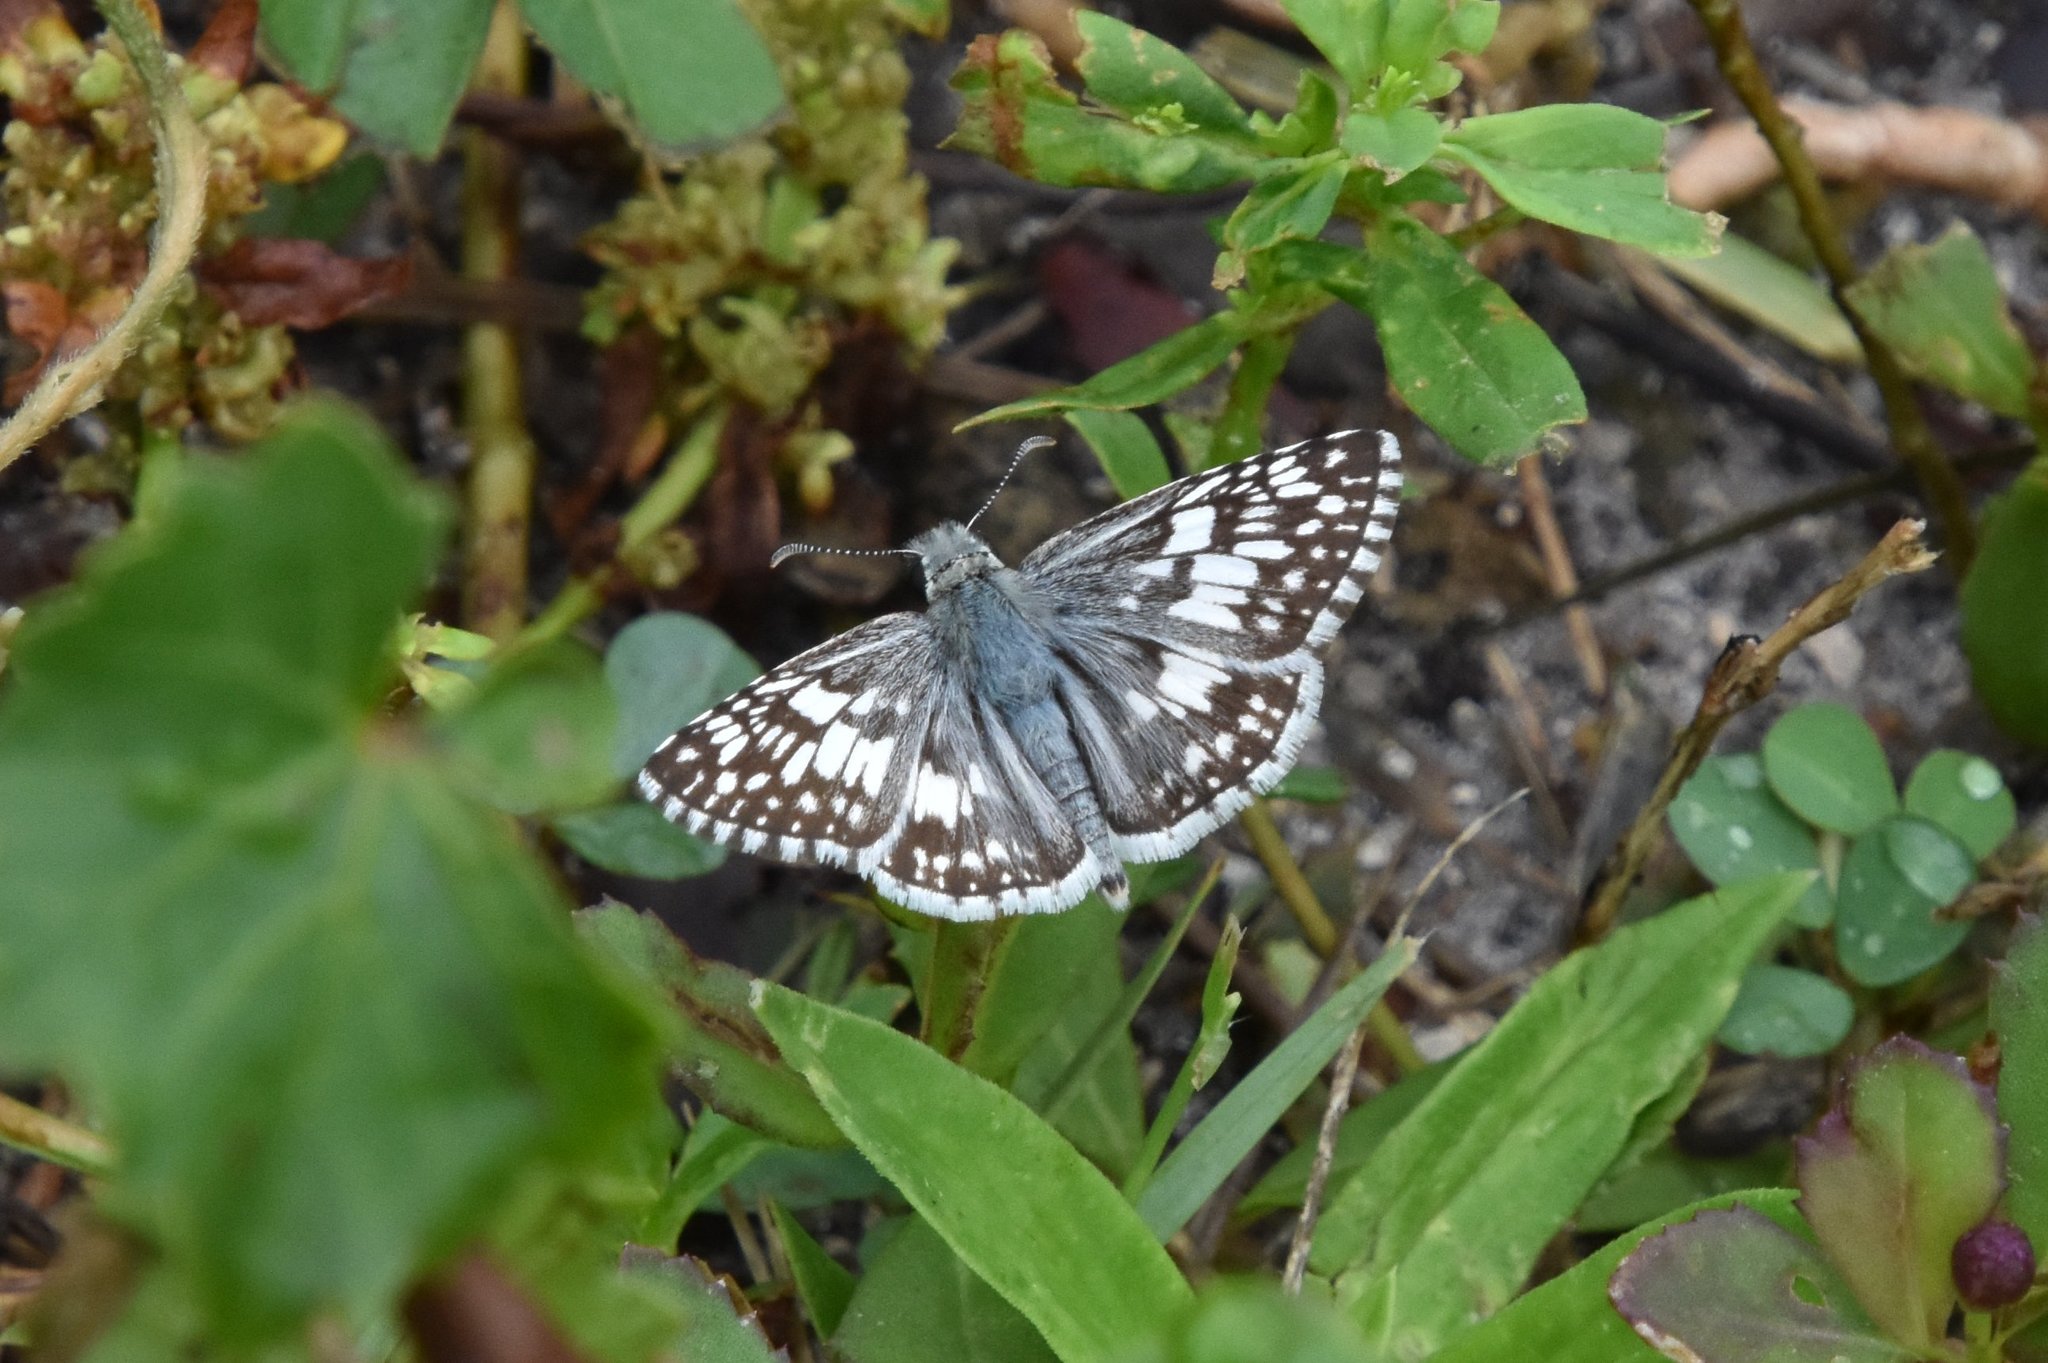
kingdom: Animalia
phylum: Arthropoda
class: Insecta
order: Lepidoptera
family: Hesperiidae
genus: Burnsius
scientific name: Burnsius albezens
